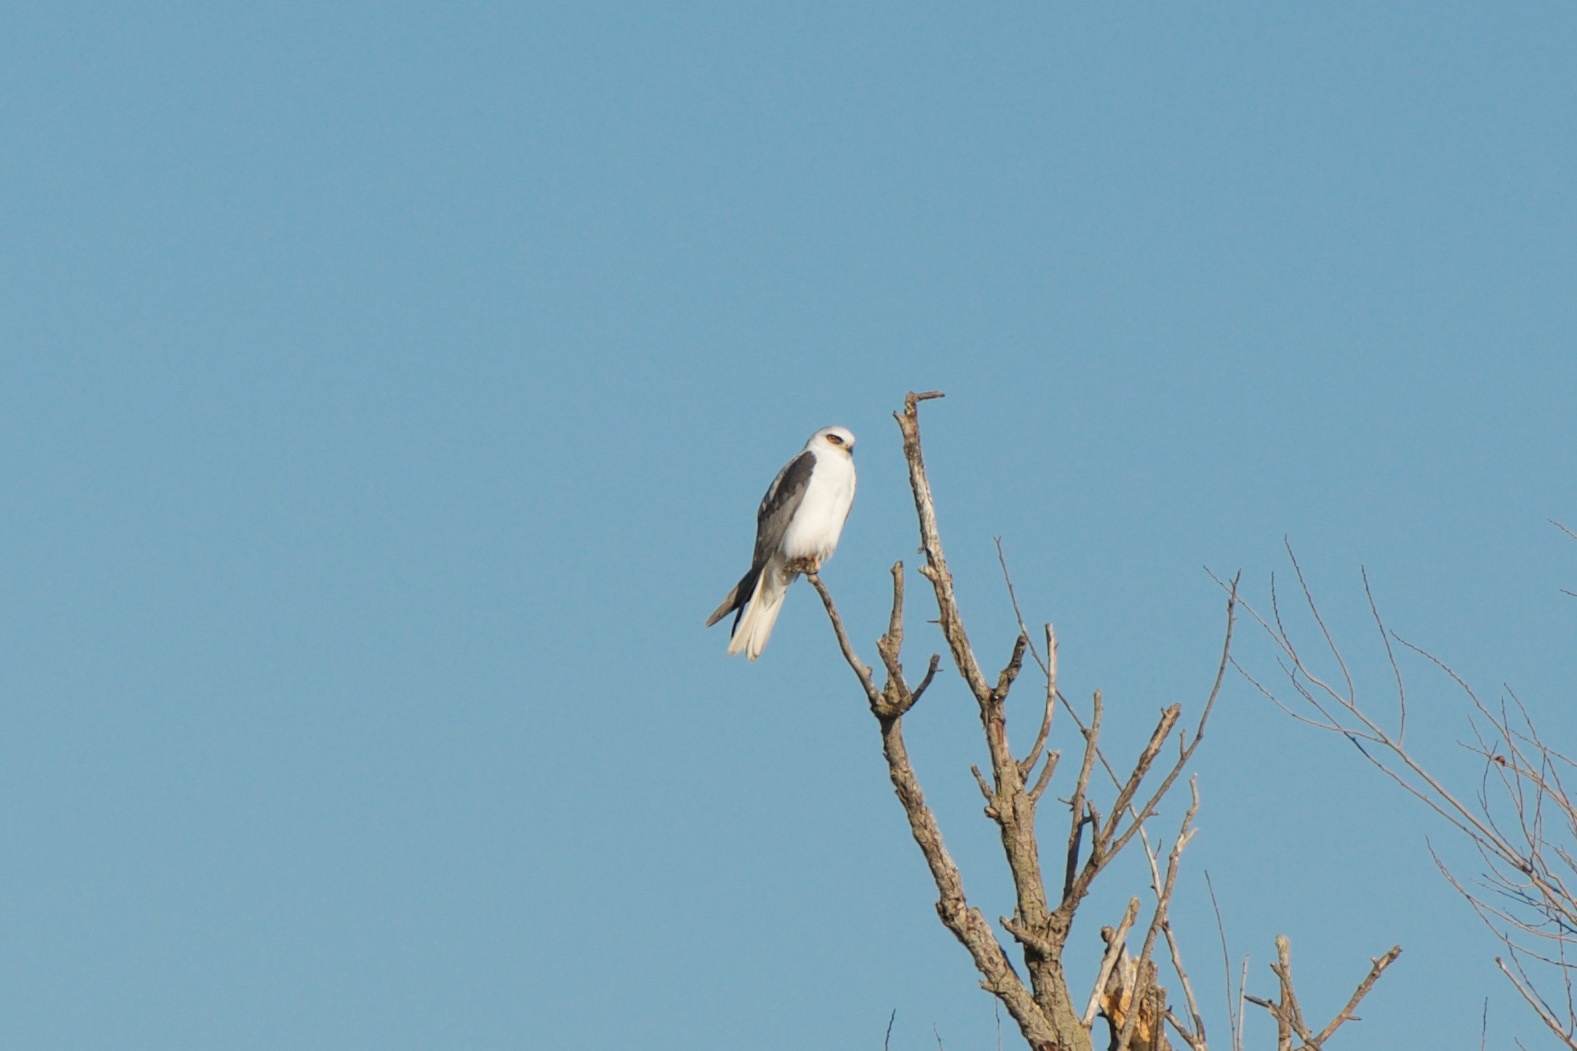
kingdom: Animalia
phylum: Chordata
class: Aves
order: Accipitriformes
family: Accipitridae
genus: Elanus
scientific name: Elanus leucurus
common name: White-tailed kite
